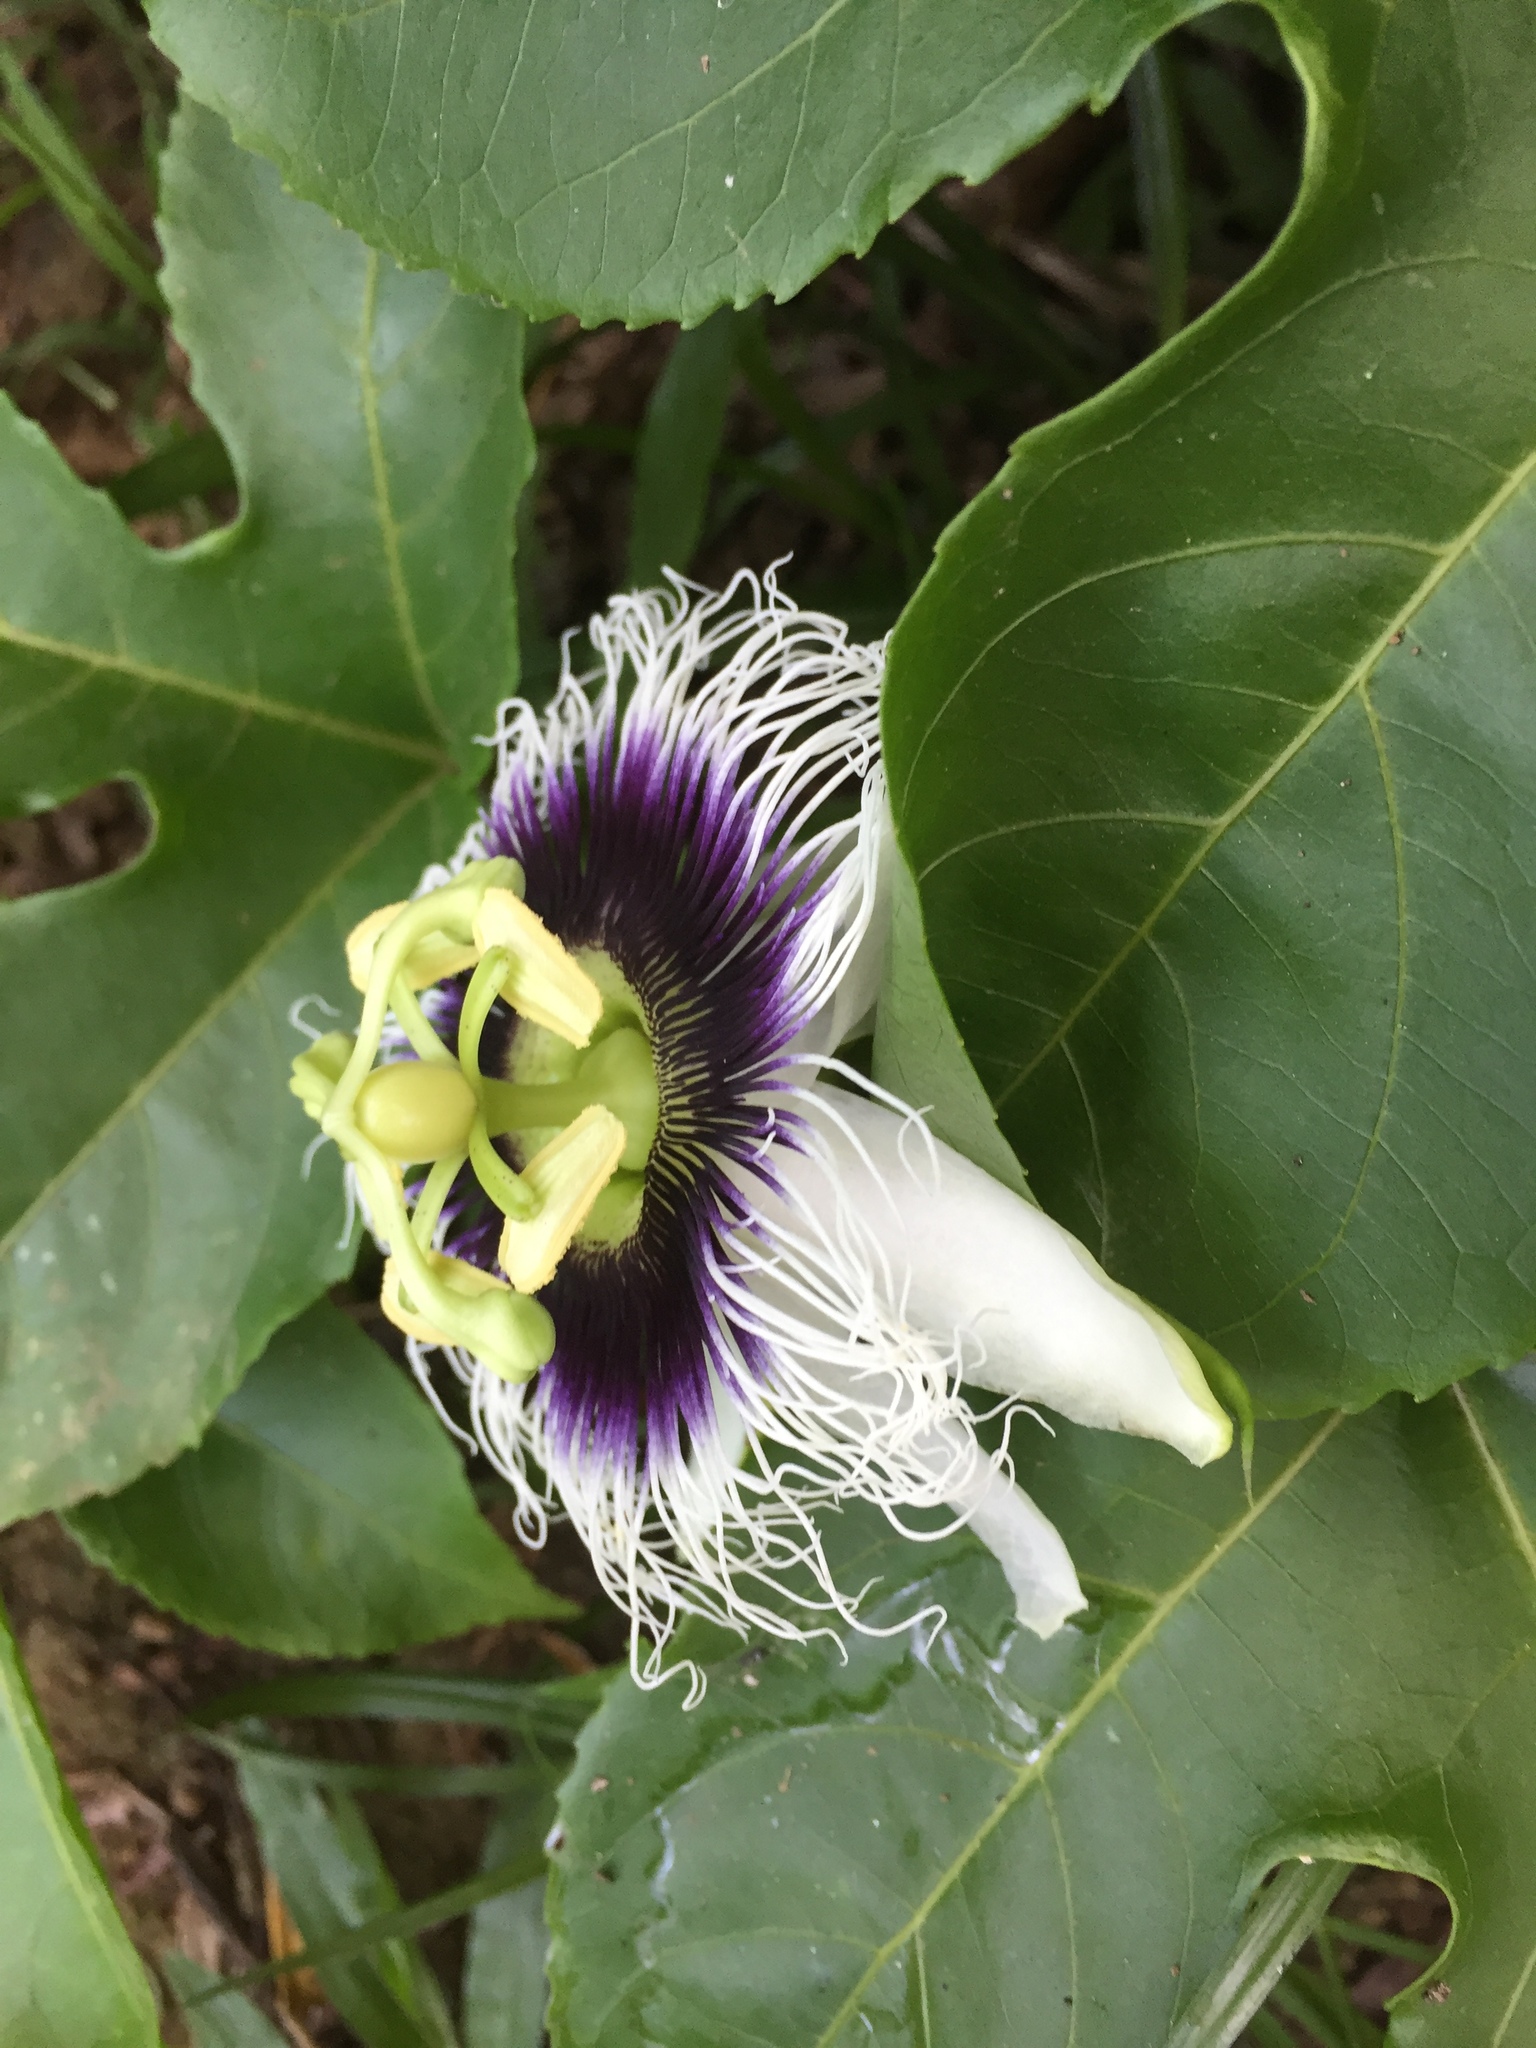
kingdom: Plantae
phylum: Tracheophyta
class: Magnoliopsida
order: Malpighiales
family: Passifloraceae
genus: Passiflora
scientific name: Passiflora edulis
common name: Purple granadilla
